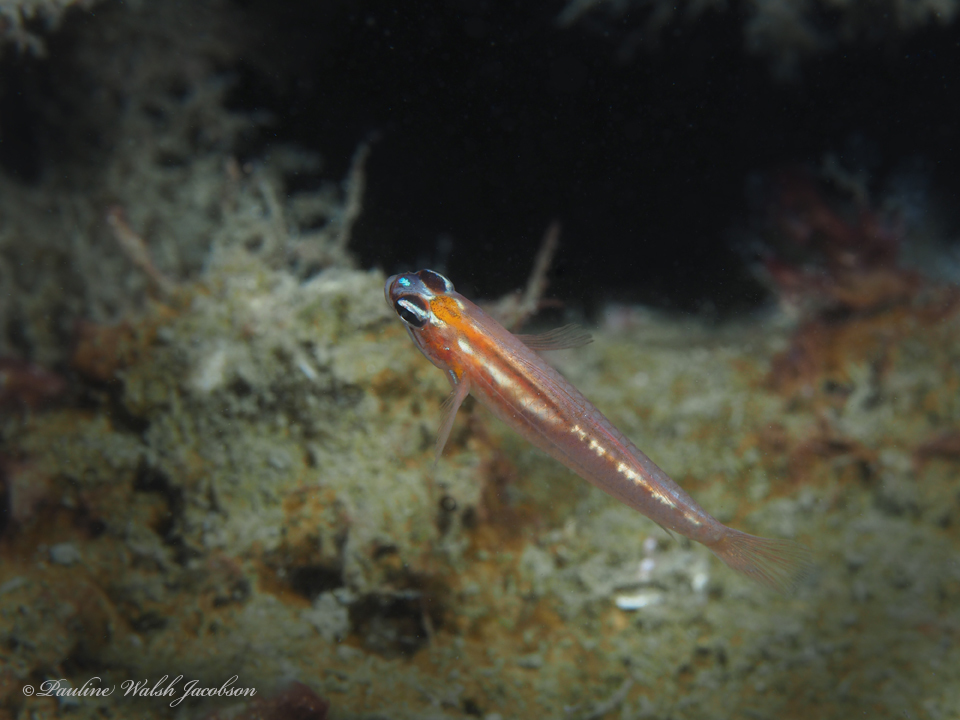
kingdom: Animalia
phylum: Chordata
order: Perciformes
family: Gobiidae
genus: Coryphopterus
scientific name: Coryphopterus personatus
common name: Masked goby
